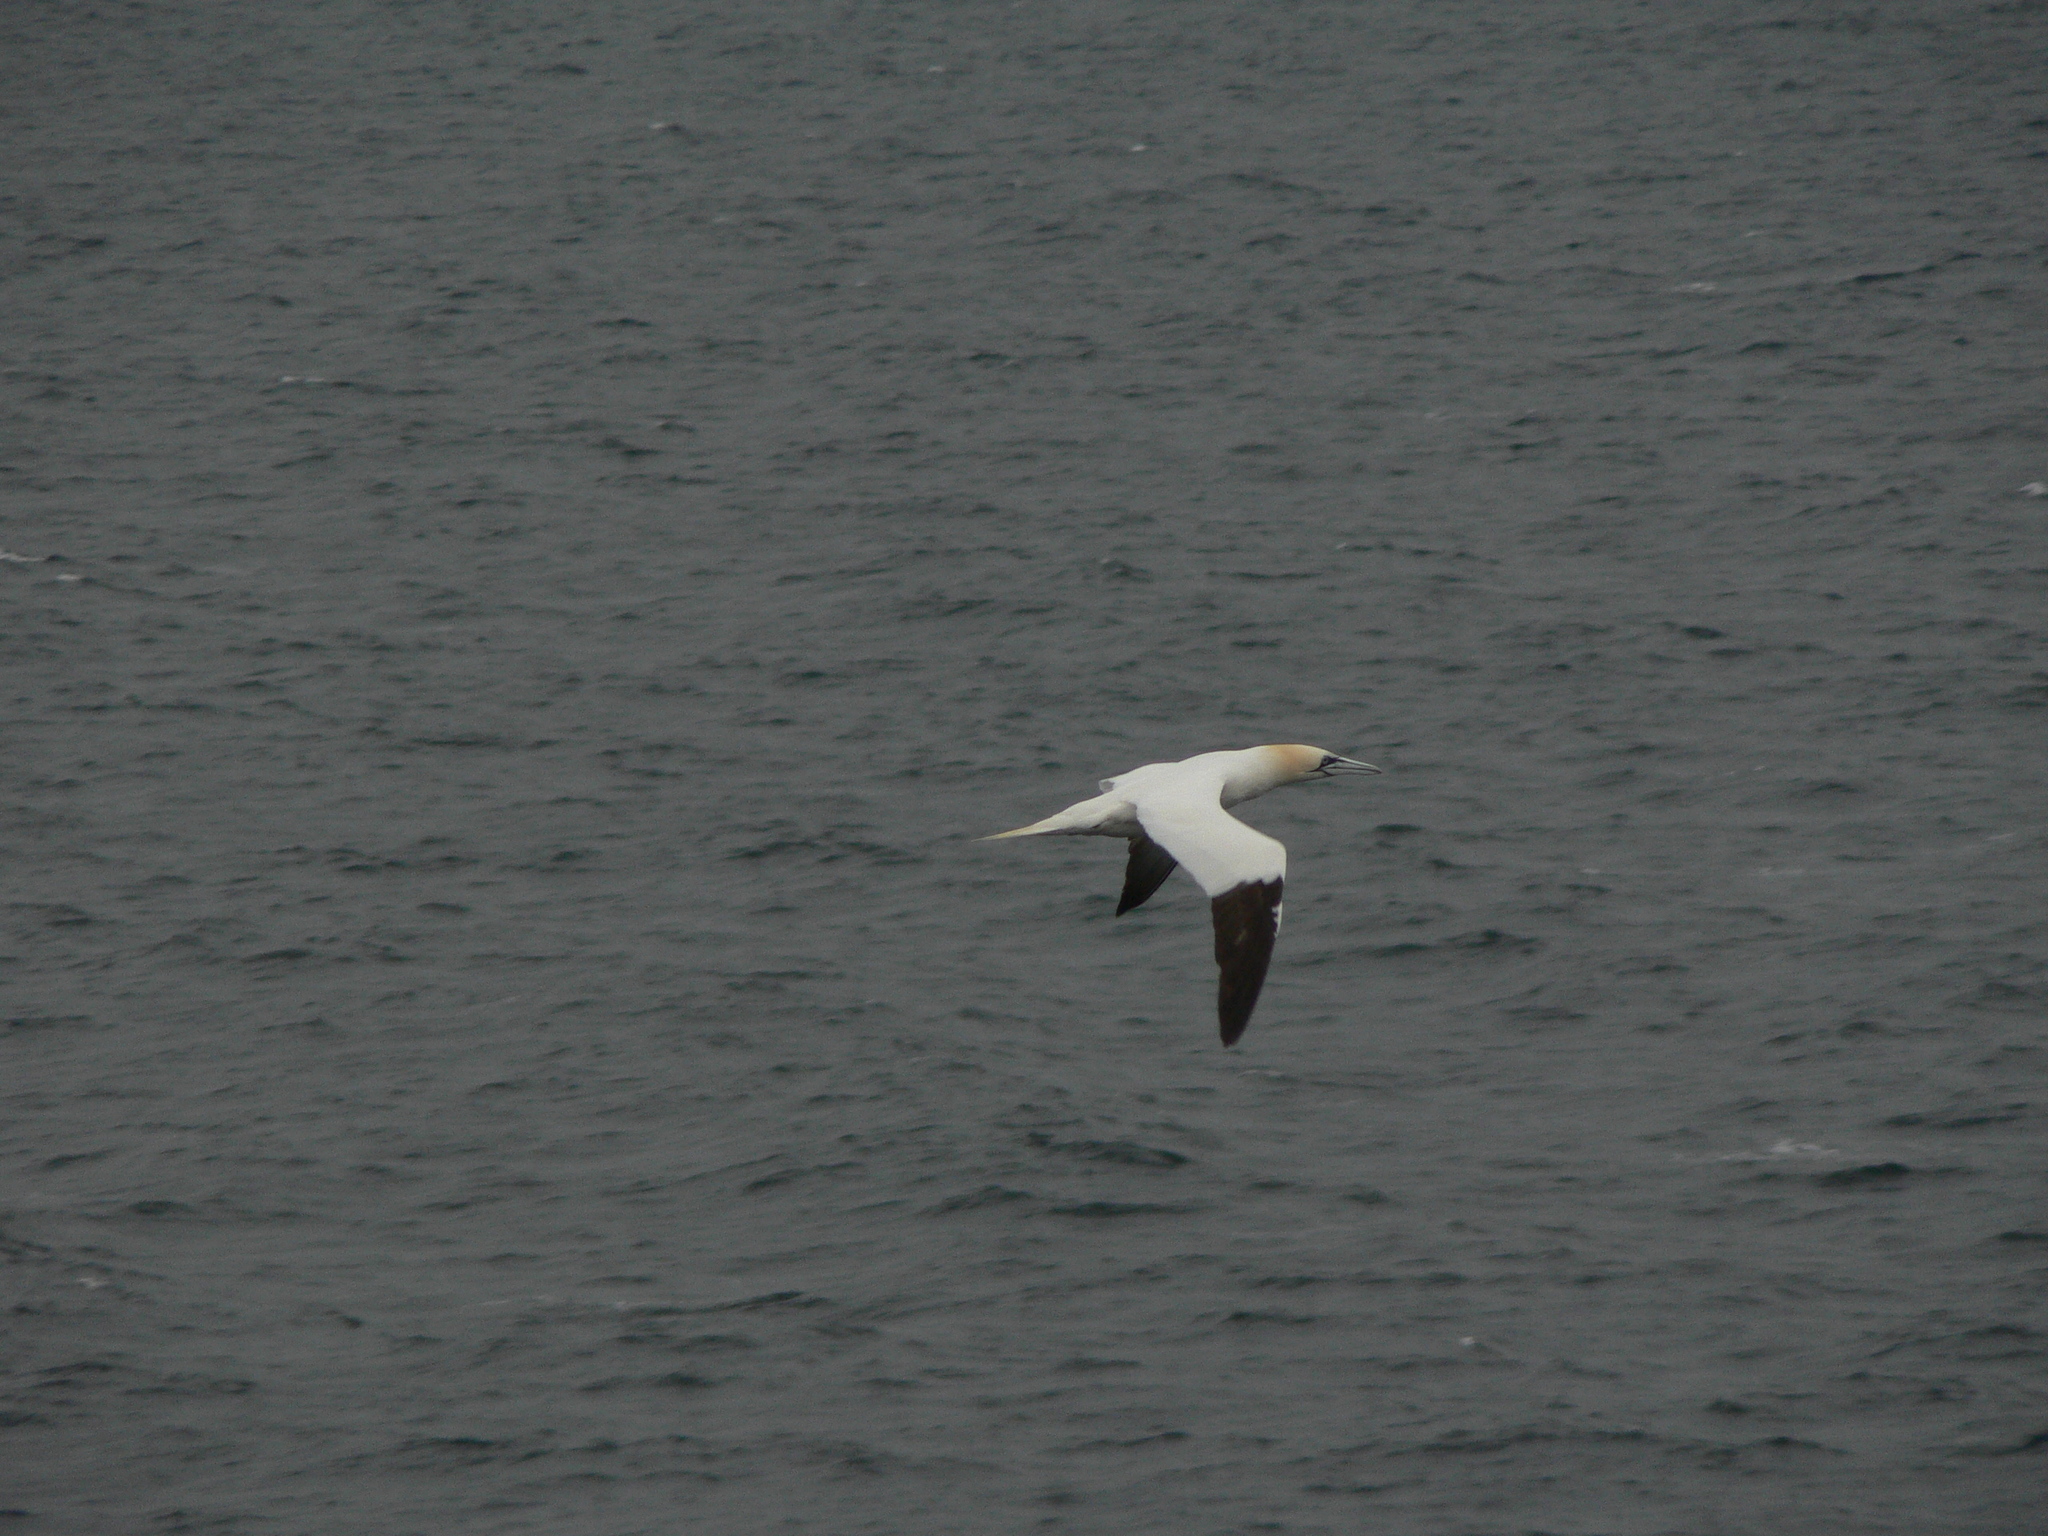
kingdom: Animalia
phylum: Chordata
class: Aves
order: Suliformes
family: Sulidae
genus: Morus
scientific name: Morus bassanus
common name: Northern gannet
